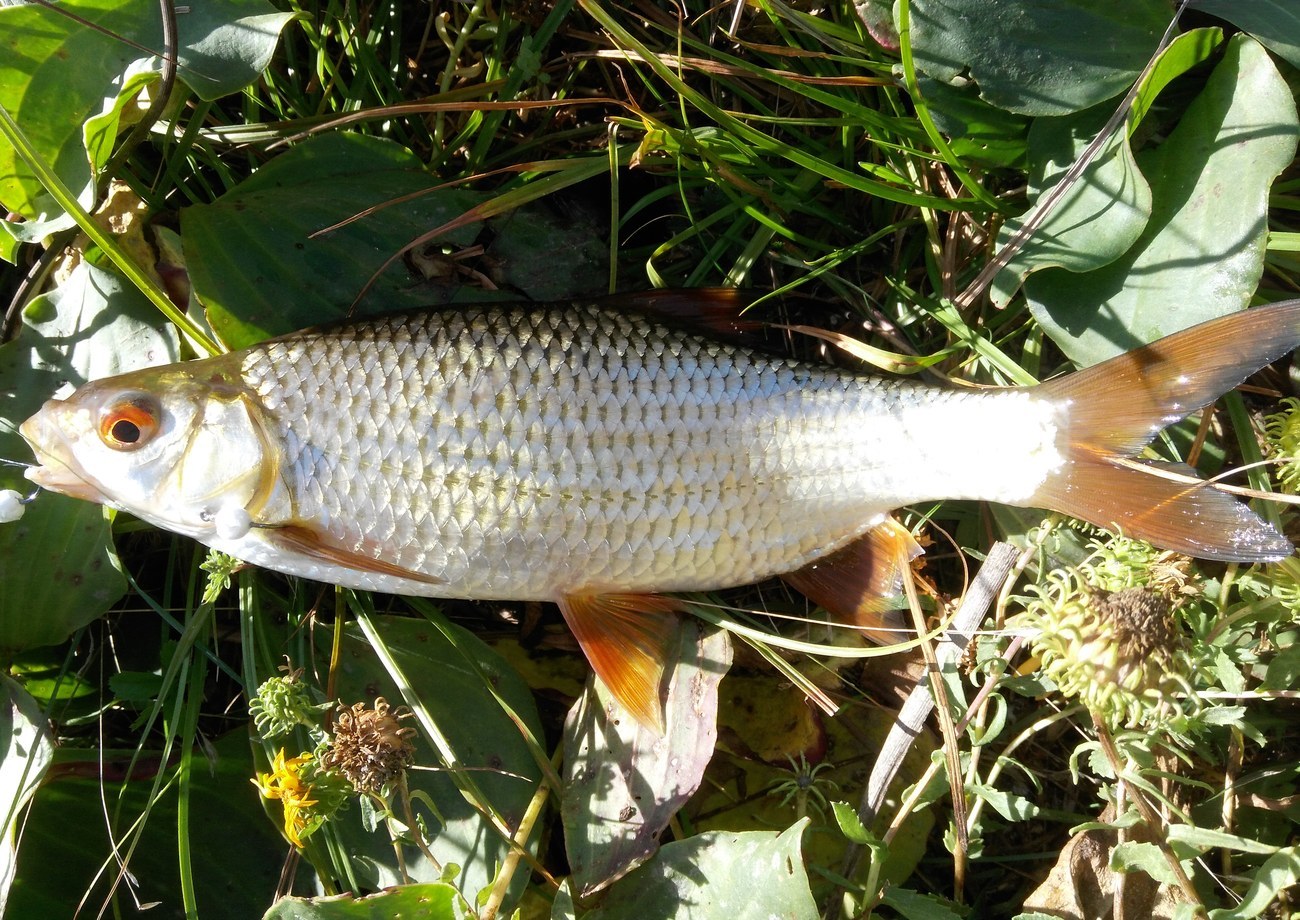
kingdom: Animalia
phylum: Chordata
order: Cypriniformes
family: Cyprinidae
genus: Rutilus
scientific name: Rutilus rutilus
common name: Roach
